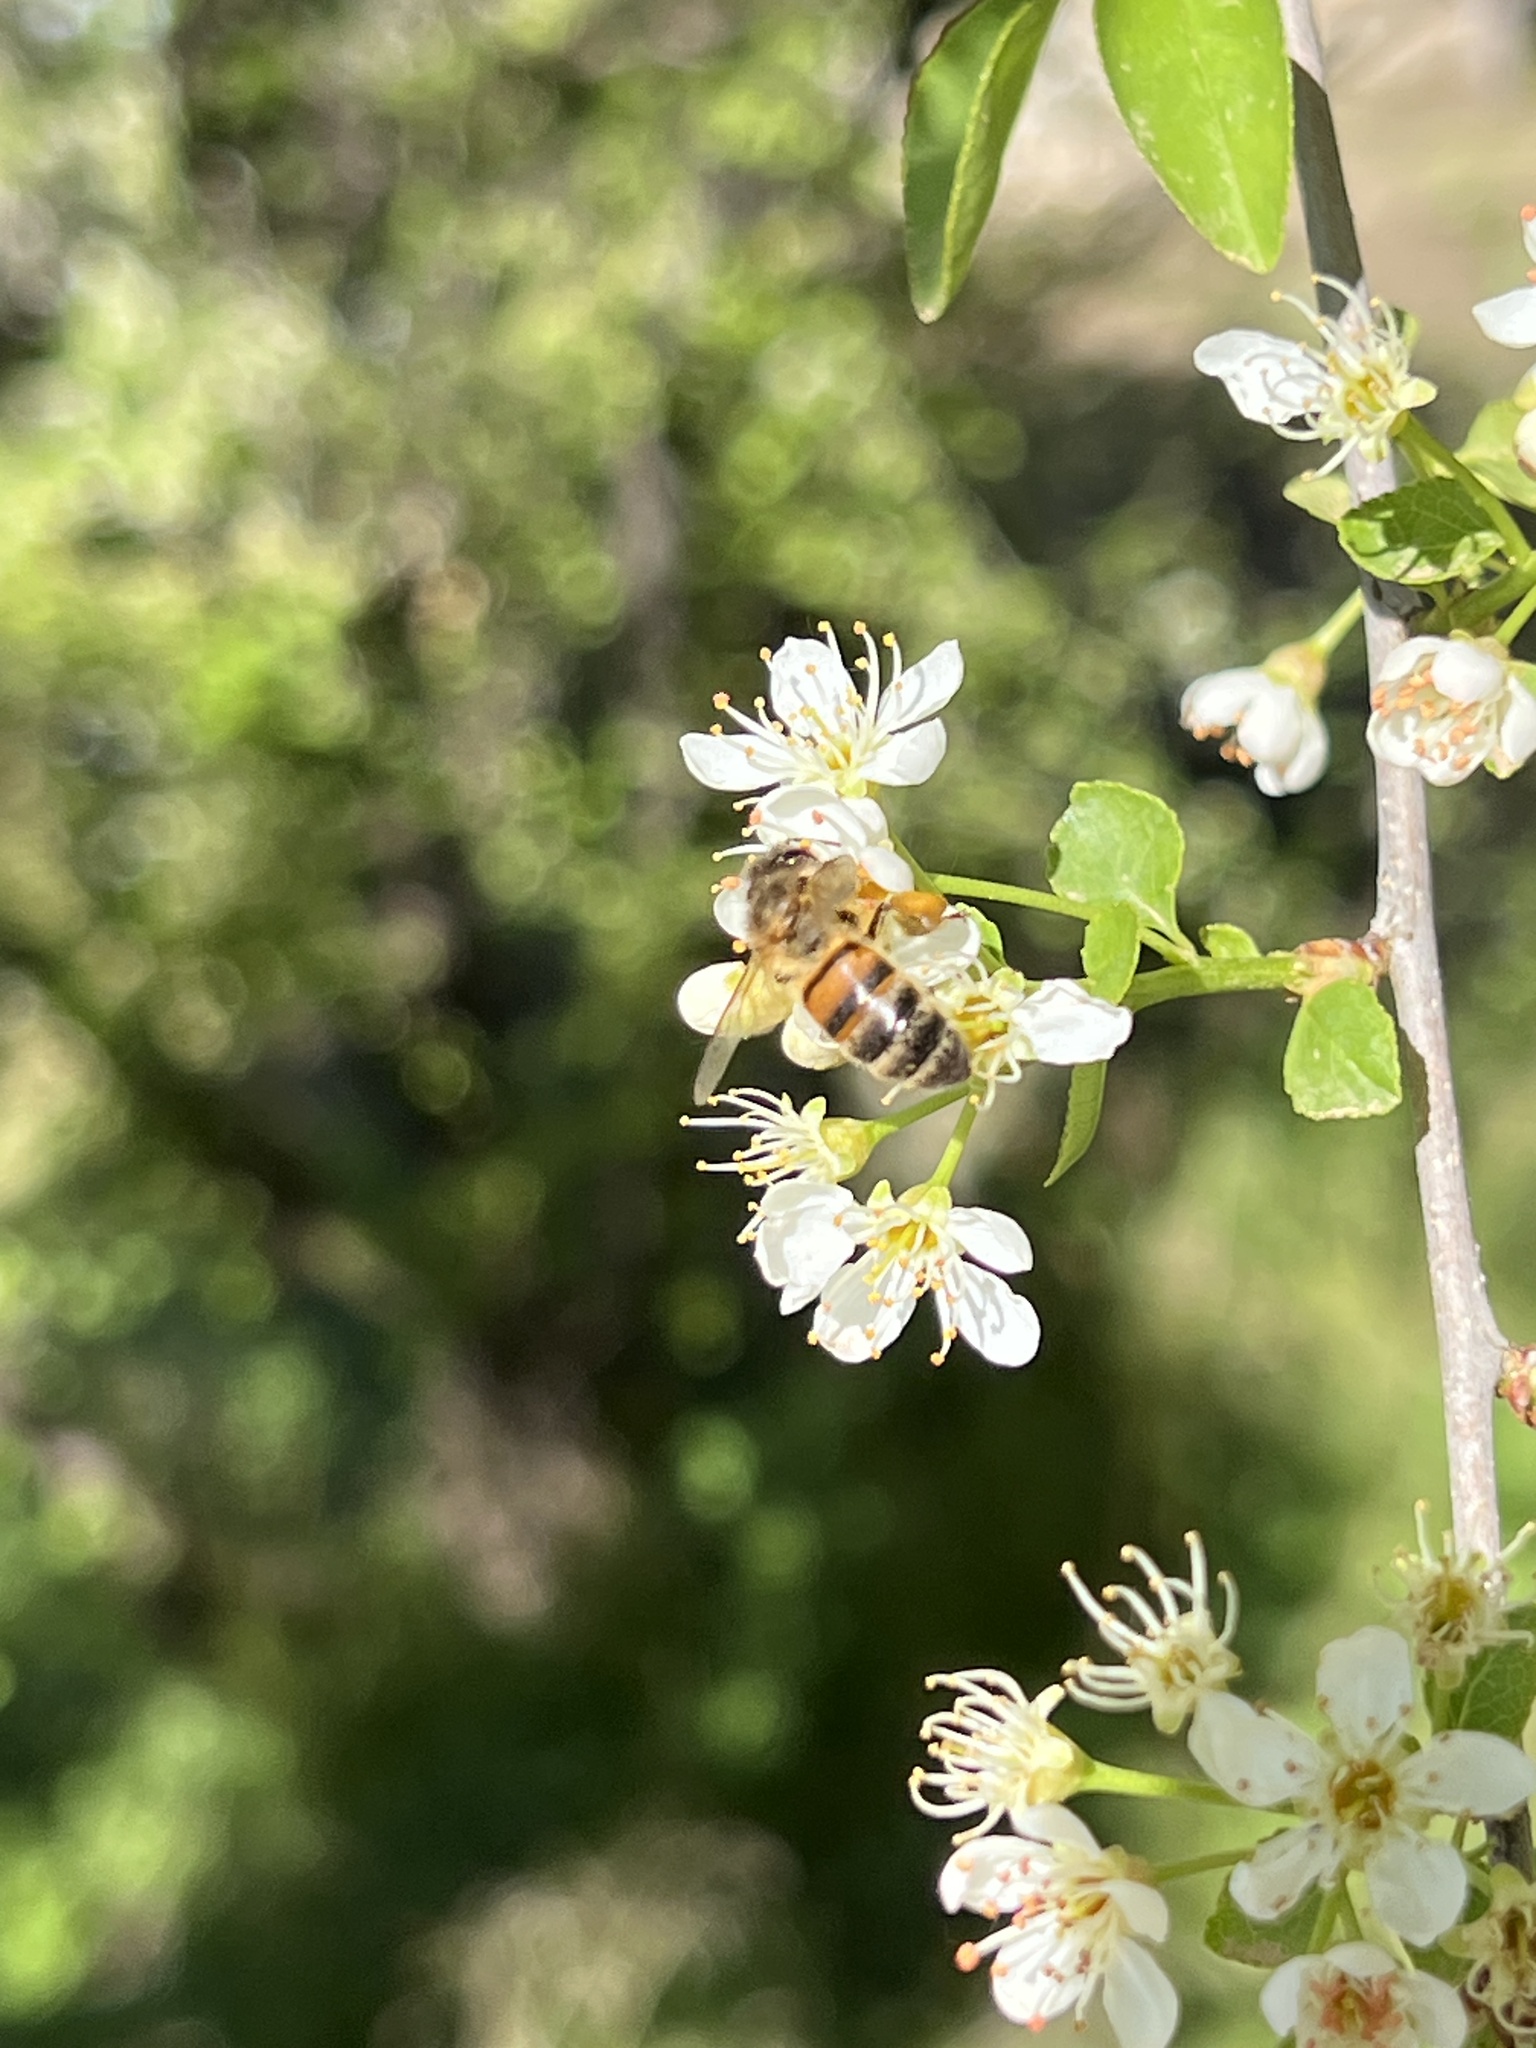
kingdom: Animalia
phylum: Arthropoda
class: Insecta
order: Hymenoptera
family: Apidae
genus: Apis
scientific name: Apis mellifera
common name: Honey bee
